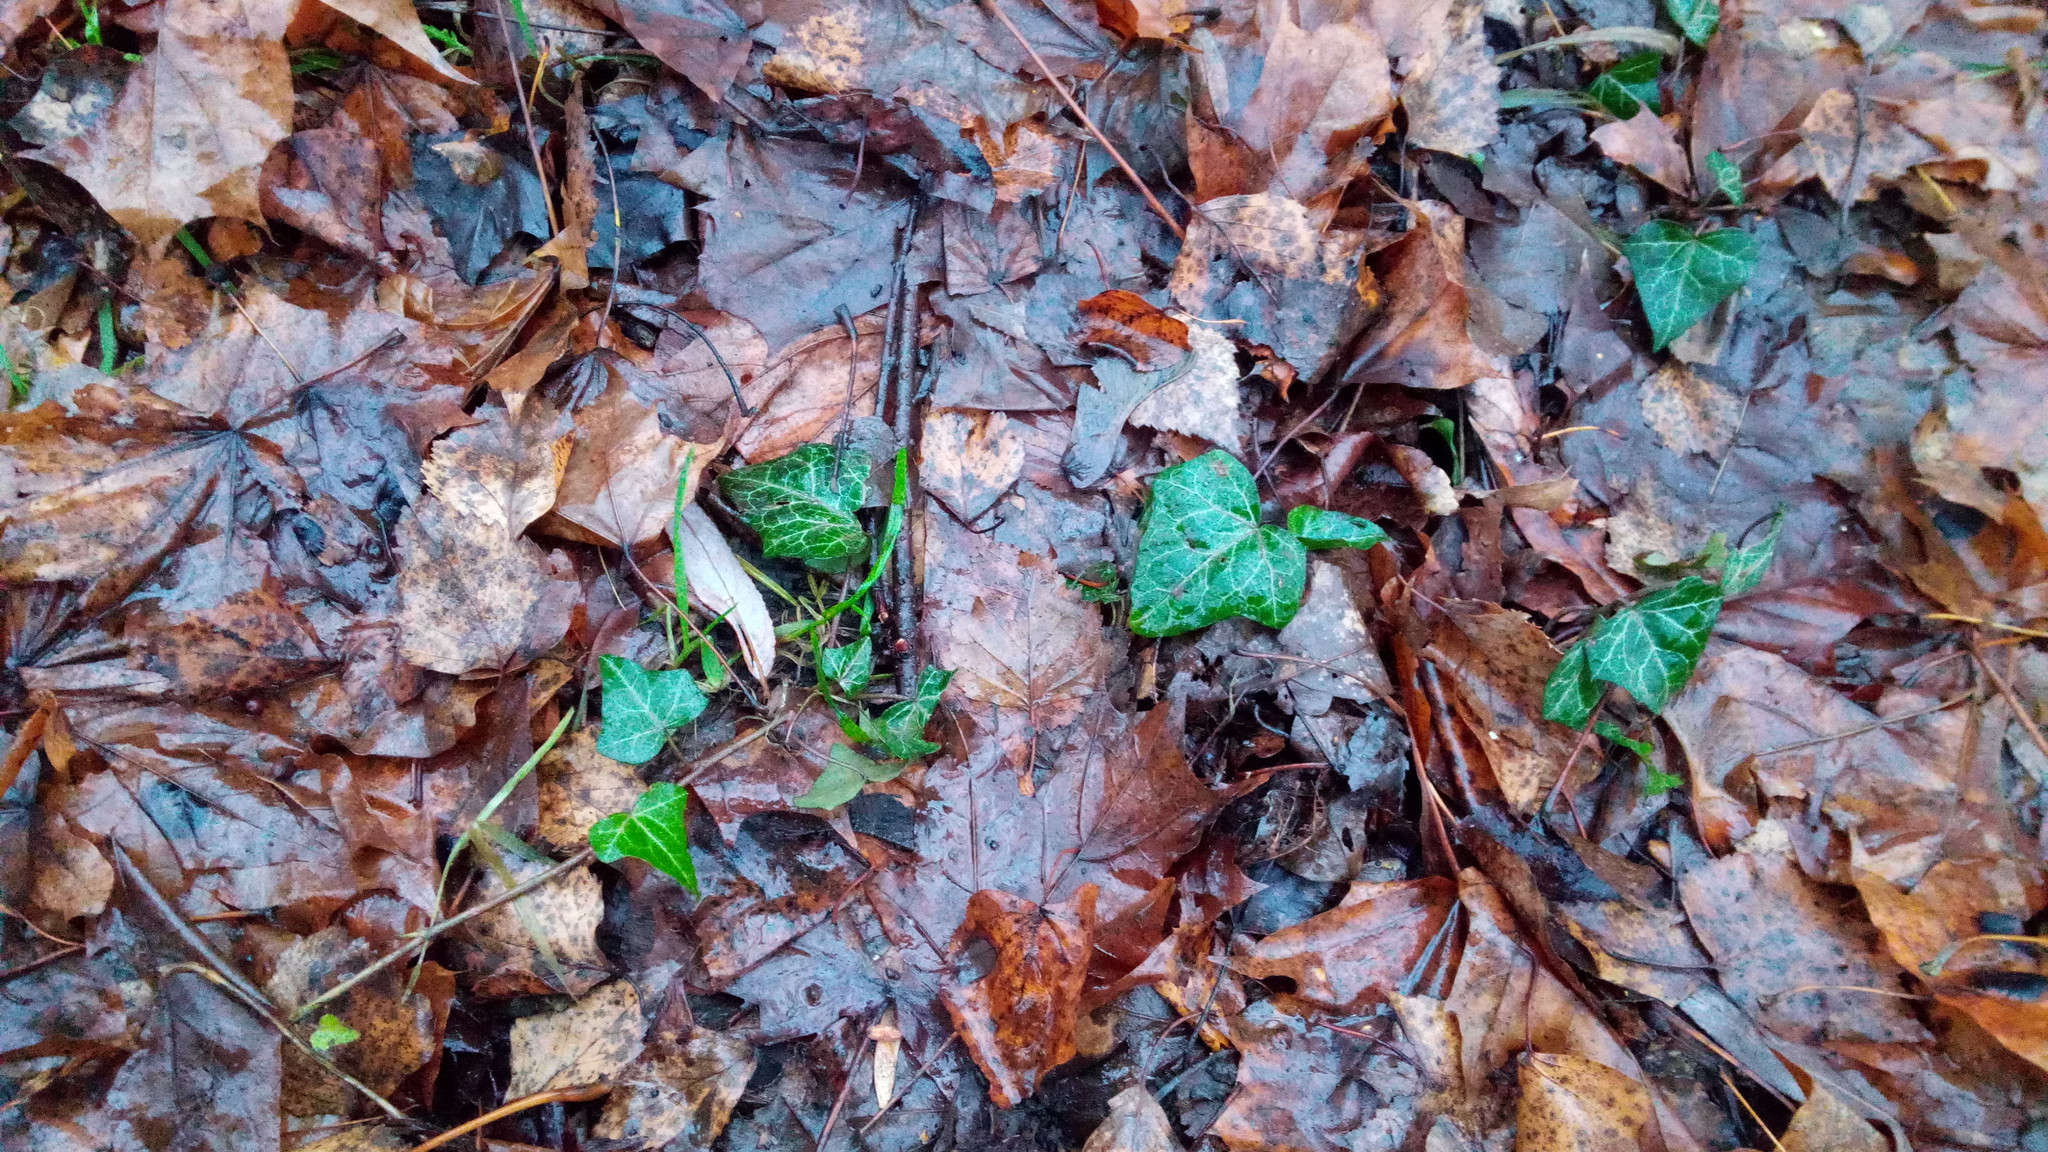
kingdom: Plantae
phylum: Tracheophyta
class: Magnoliopsida
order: Apiales
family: Araliaceae
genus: Hedera
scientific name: Hedera helix
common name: Ivy
